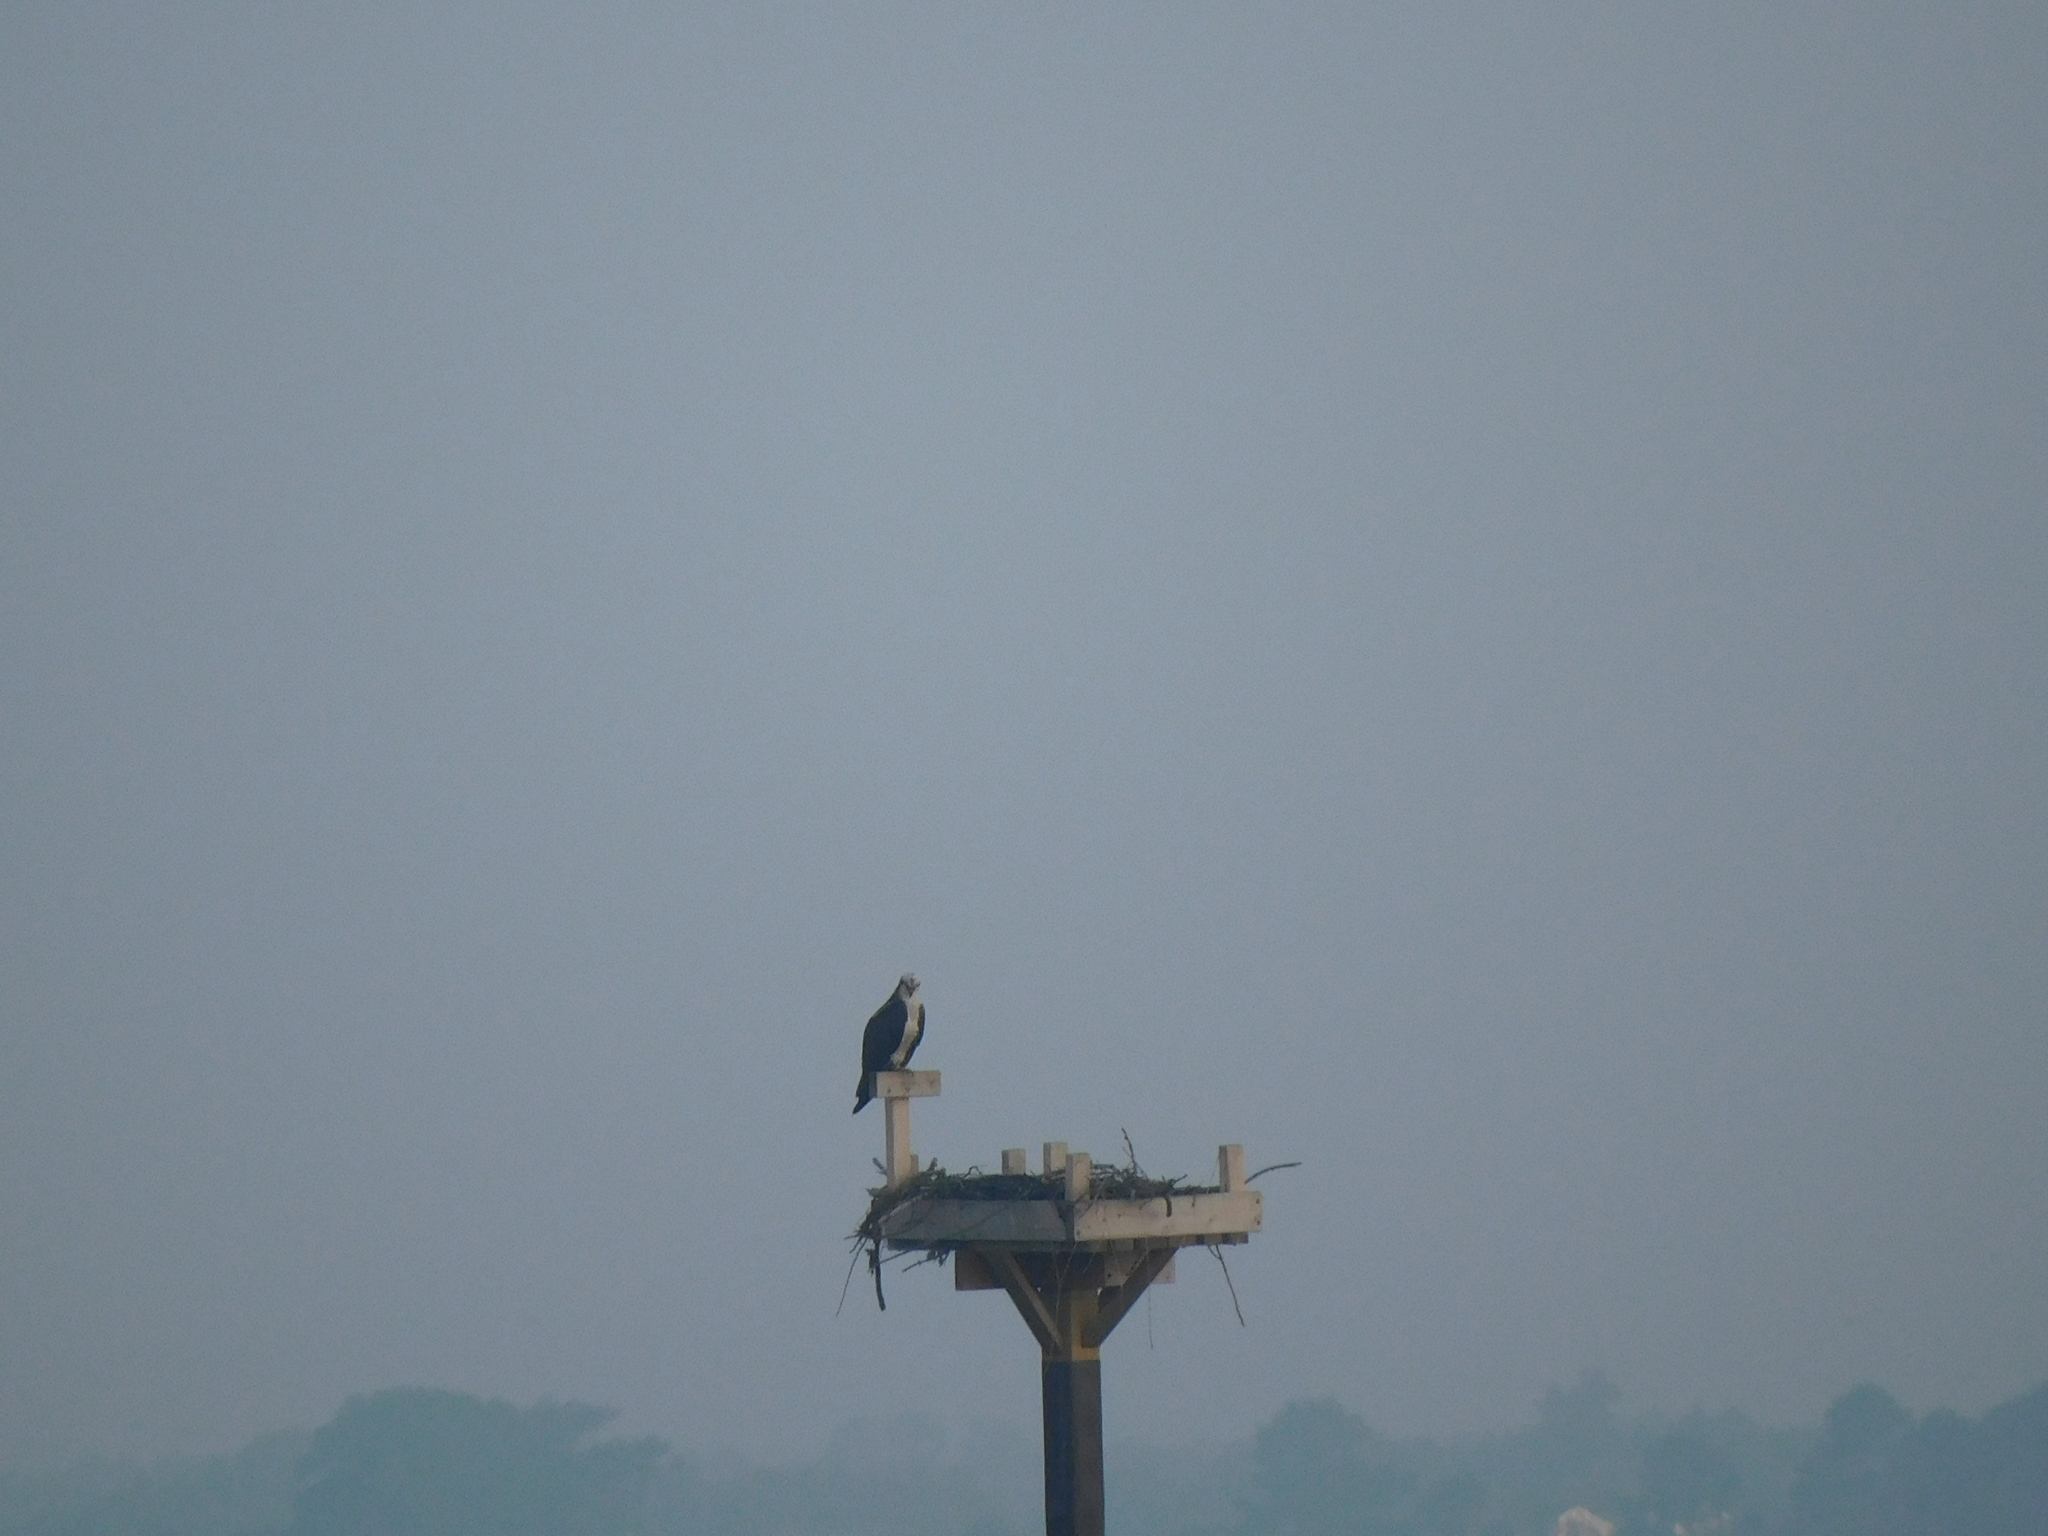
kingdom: Animalia
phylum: Chordata
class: Aves
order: Accipitriformes
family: Pandionidae
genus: Pandion
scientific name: Pandion haliaetus
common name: Osprey
